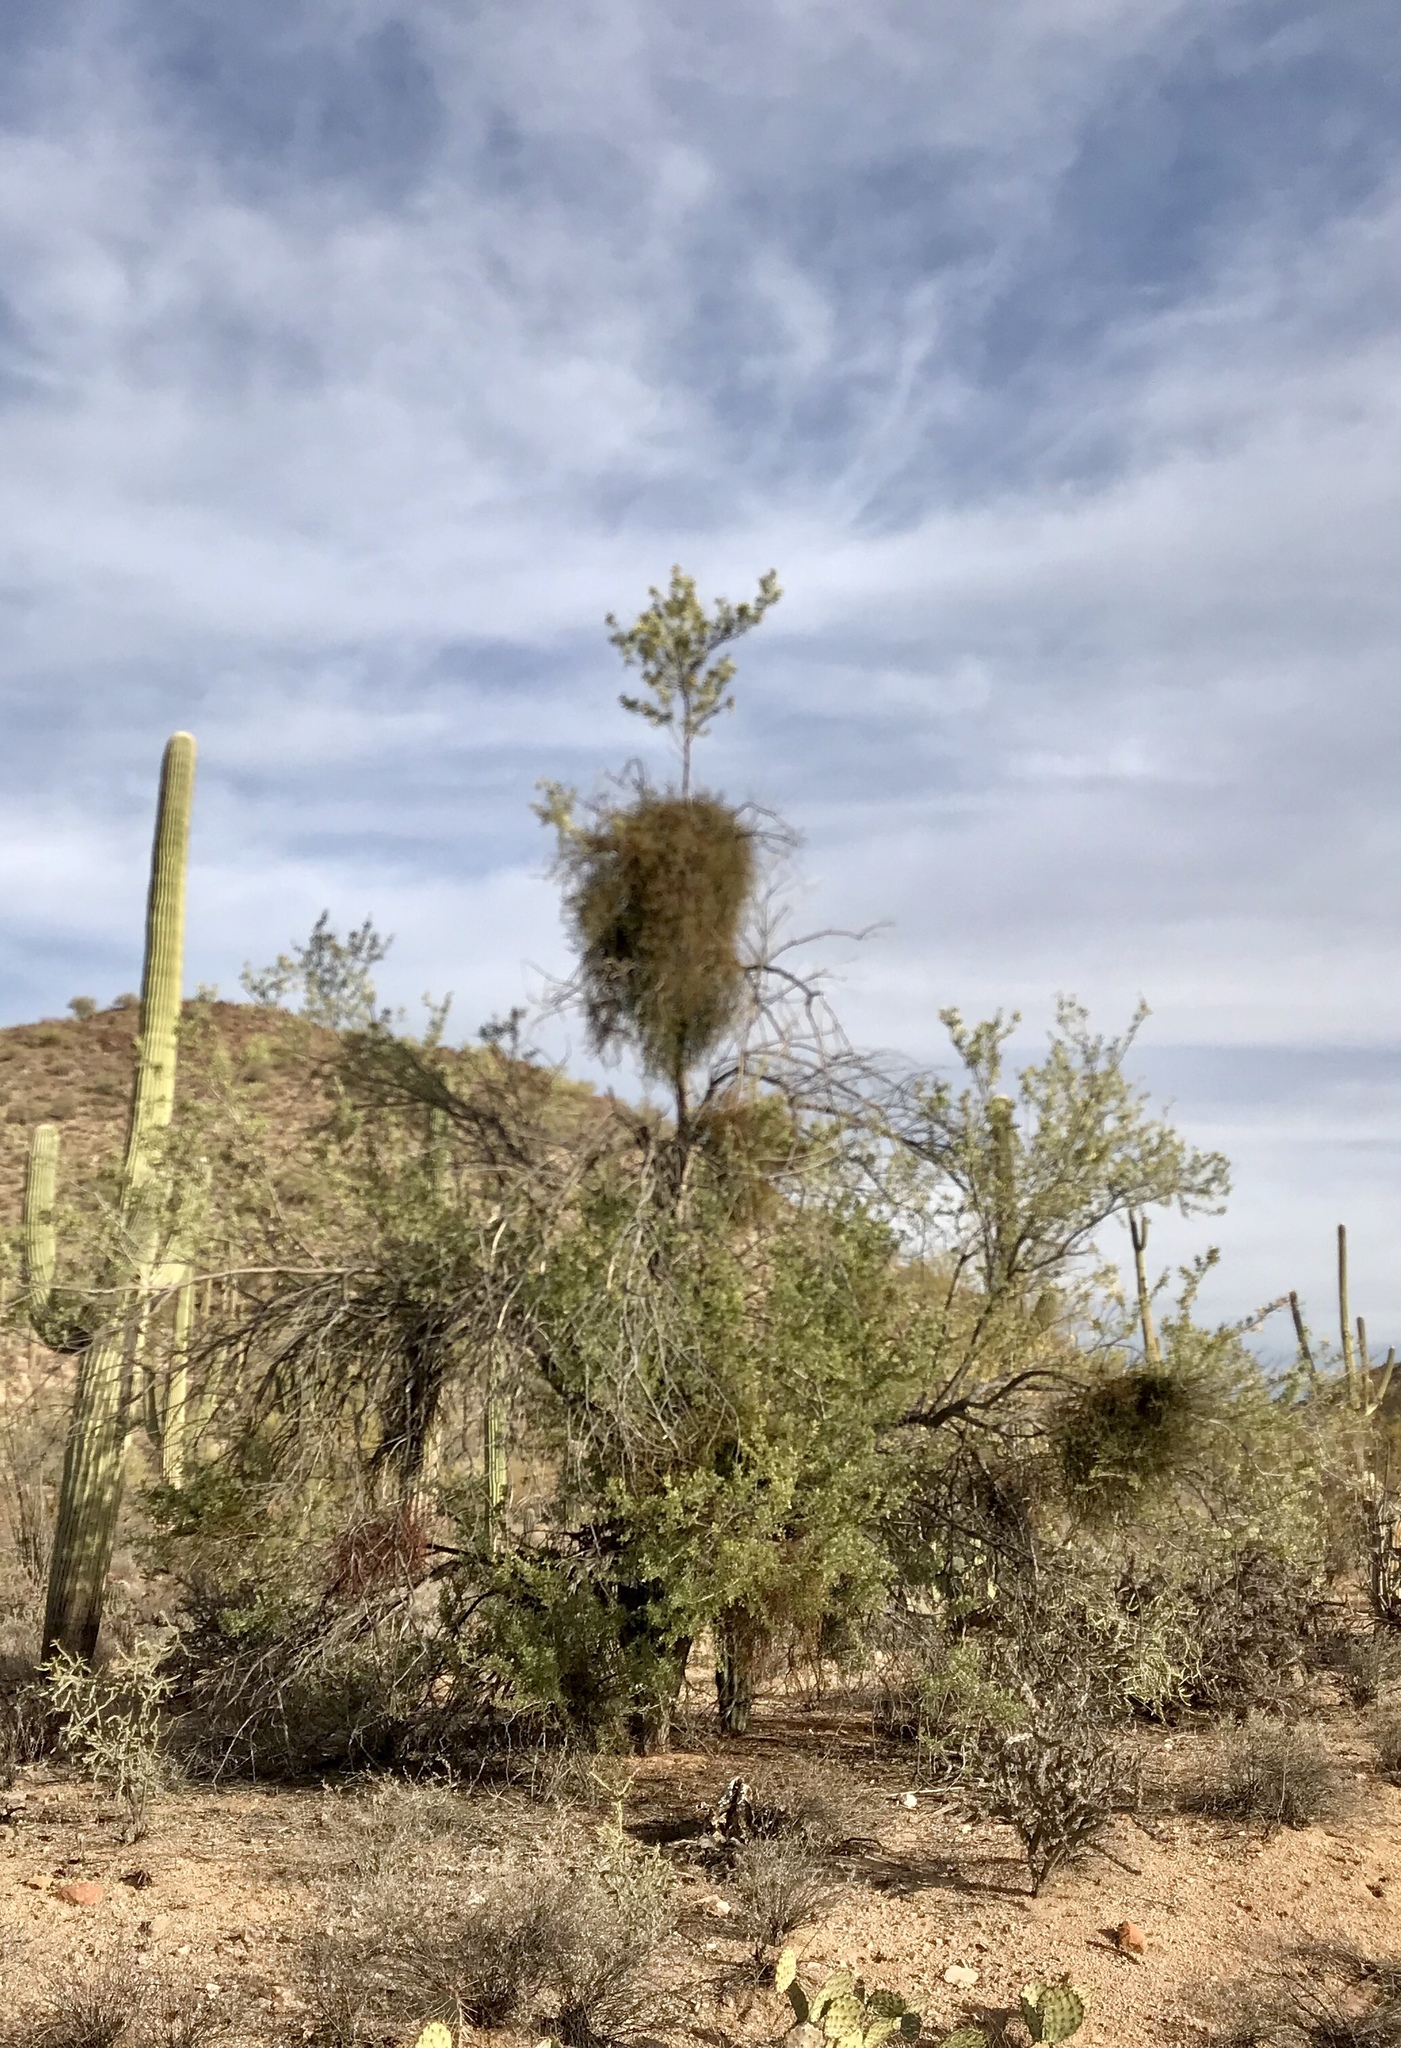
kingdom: Plantae
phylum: Tracheophyta
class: Magnoliopsida
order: Fabales
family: Fabaceae
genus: Olneya
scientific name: Olneya tesota
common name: Desert ironwood
